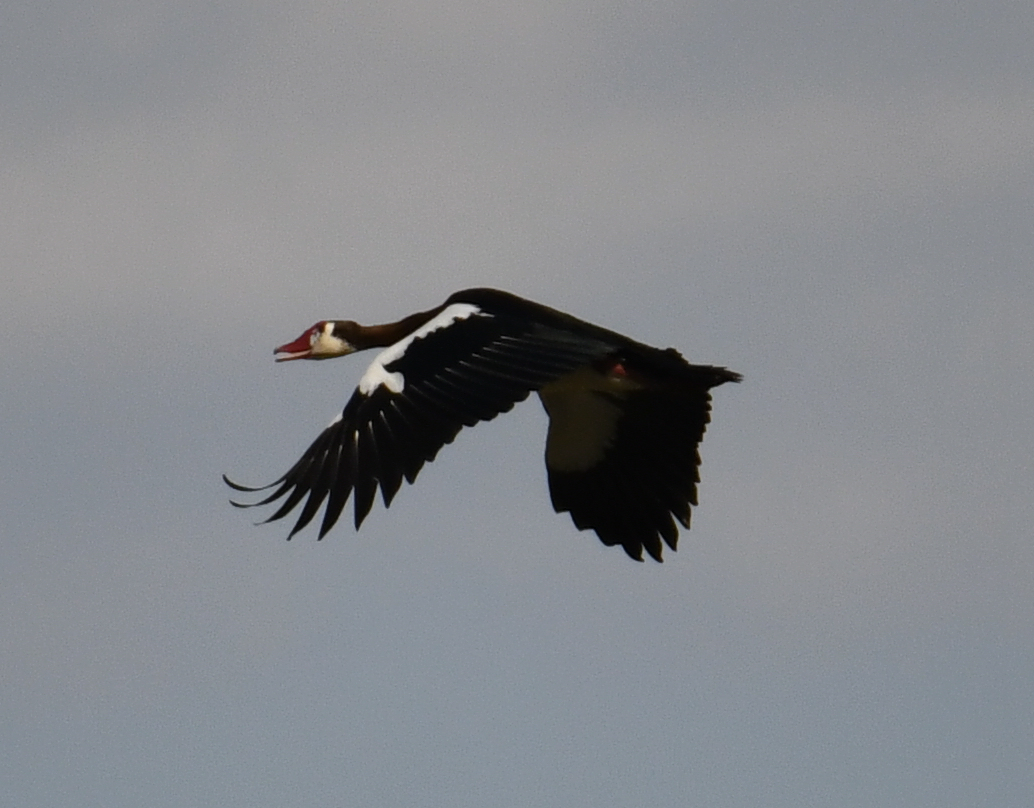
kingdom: Animalia
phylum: Chordata
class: Aves
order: Anseriformes
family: Anatidae
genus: Plectropterus
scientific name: Plectropterus gambensis
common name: Spur-winged goose
